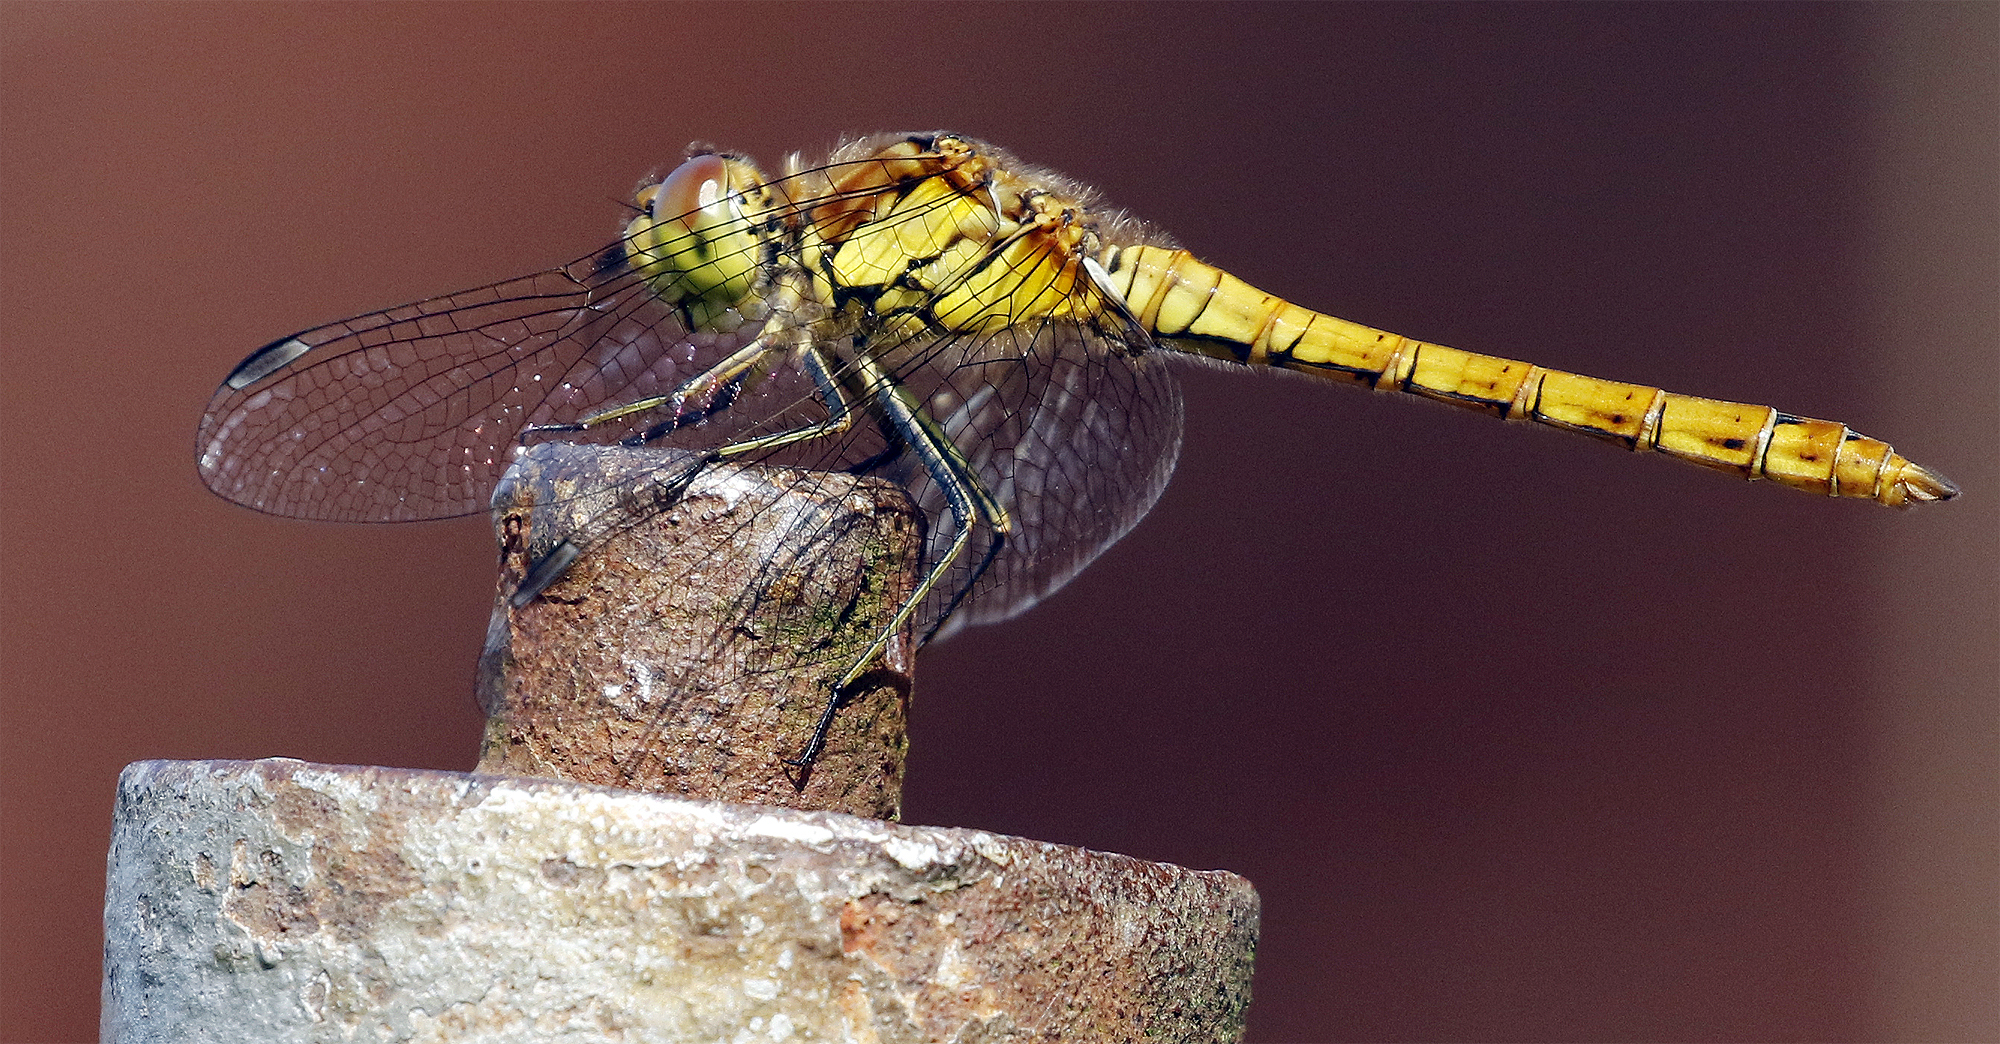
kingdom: Animalia
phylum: Arthropoda
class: Insecta
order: Odonata
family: Libellulidae
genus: Sympetrum
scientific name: Sympetrum striolatum
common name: Common darter
